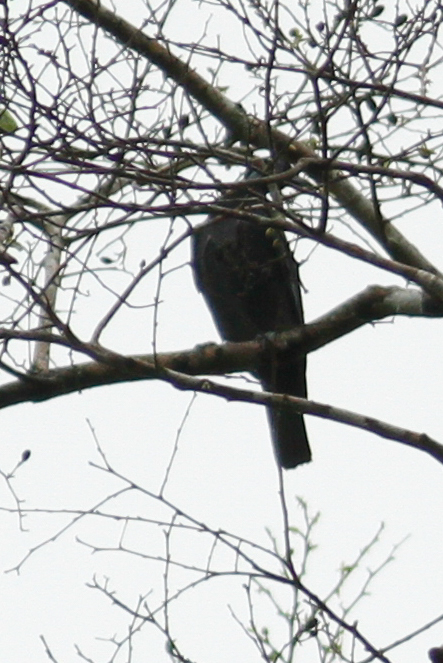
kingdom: Animalia
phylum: Chordata
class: Aves
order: Passeriformes
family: Cotingidae
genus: Gymnoderus
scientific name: Gymnoderus foetidus
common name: Bare-necked fruitcrow
